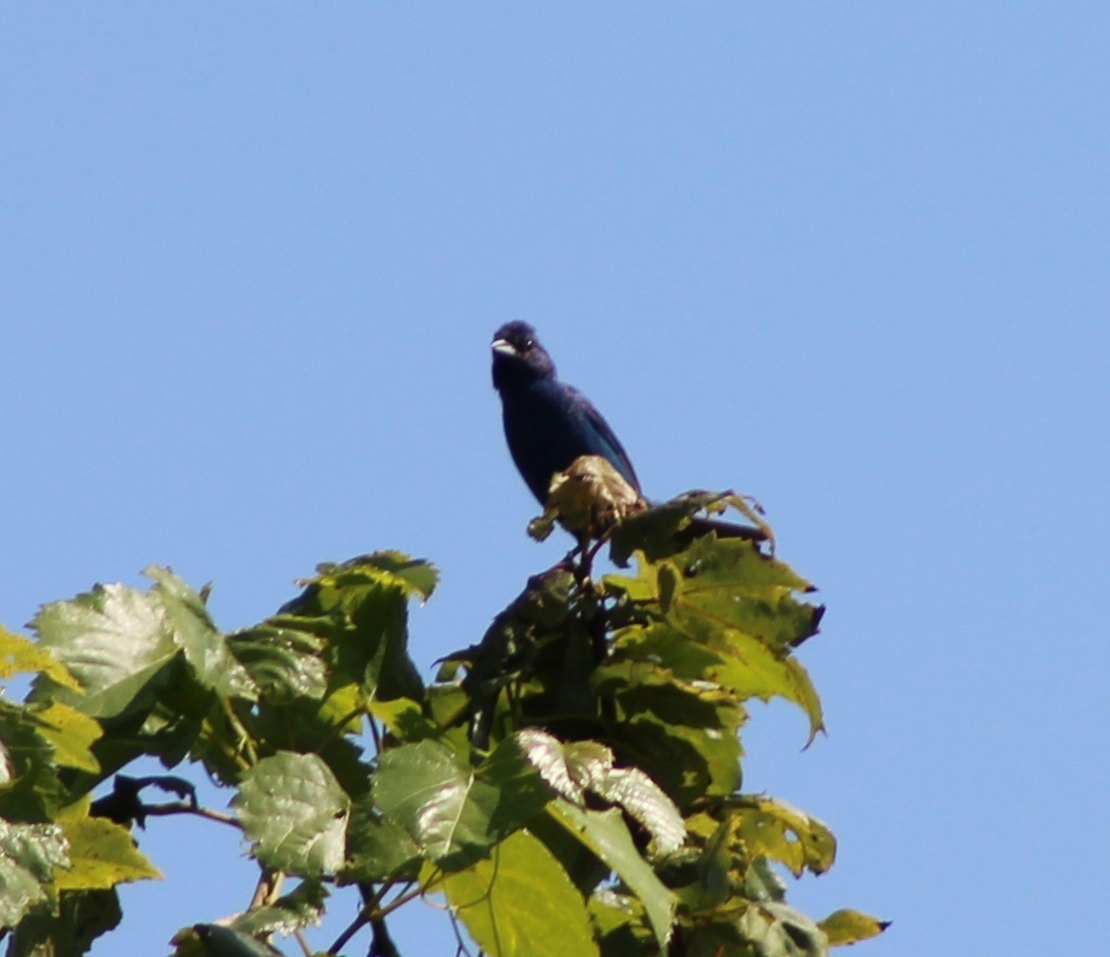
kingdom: Animalia
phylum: Chordata
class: Aves
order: Passeriformes
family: Cardinalidae
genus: Passerina
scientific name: Passerina cyanea
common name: Indigo bunting
